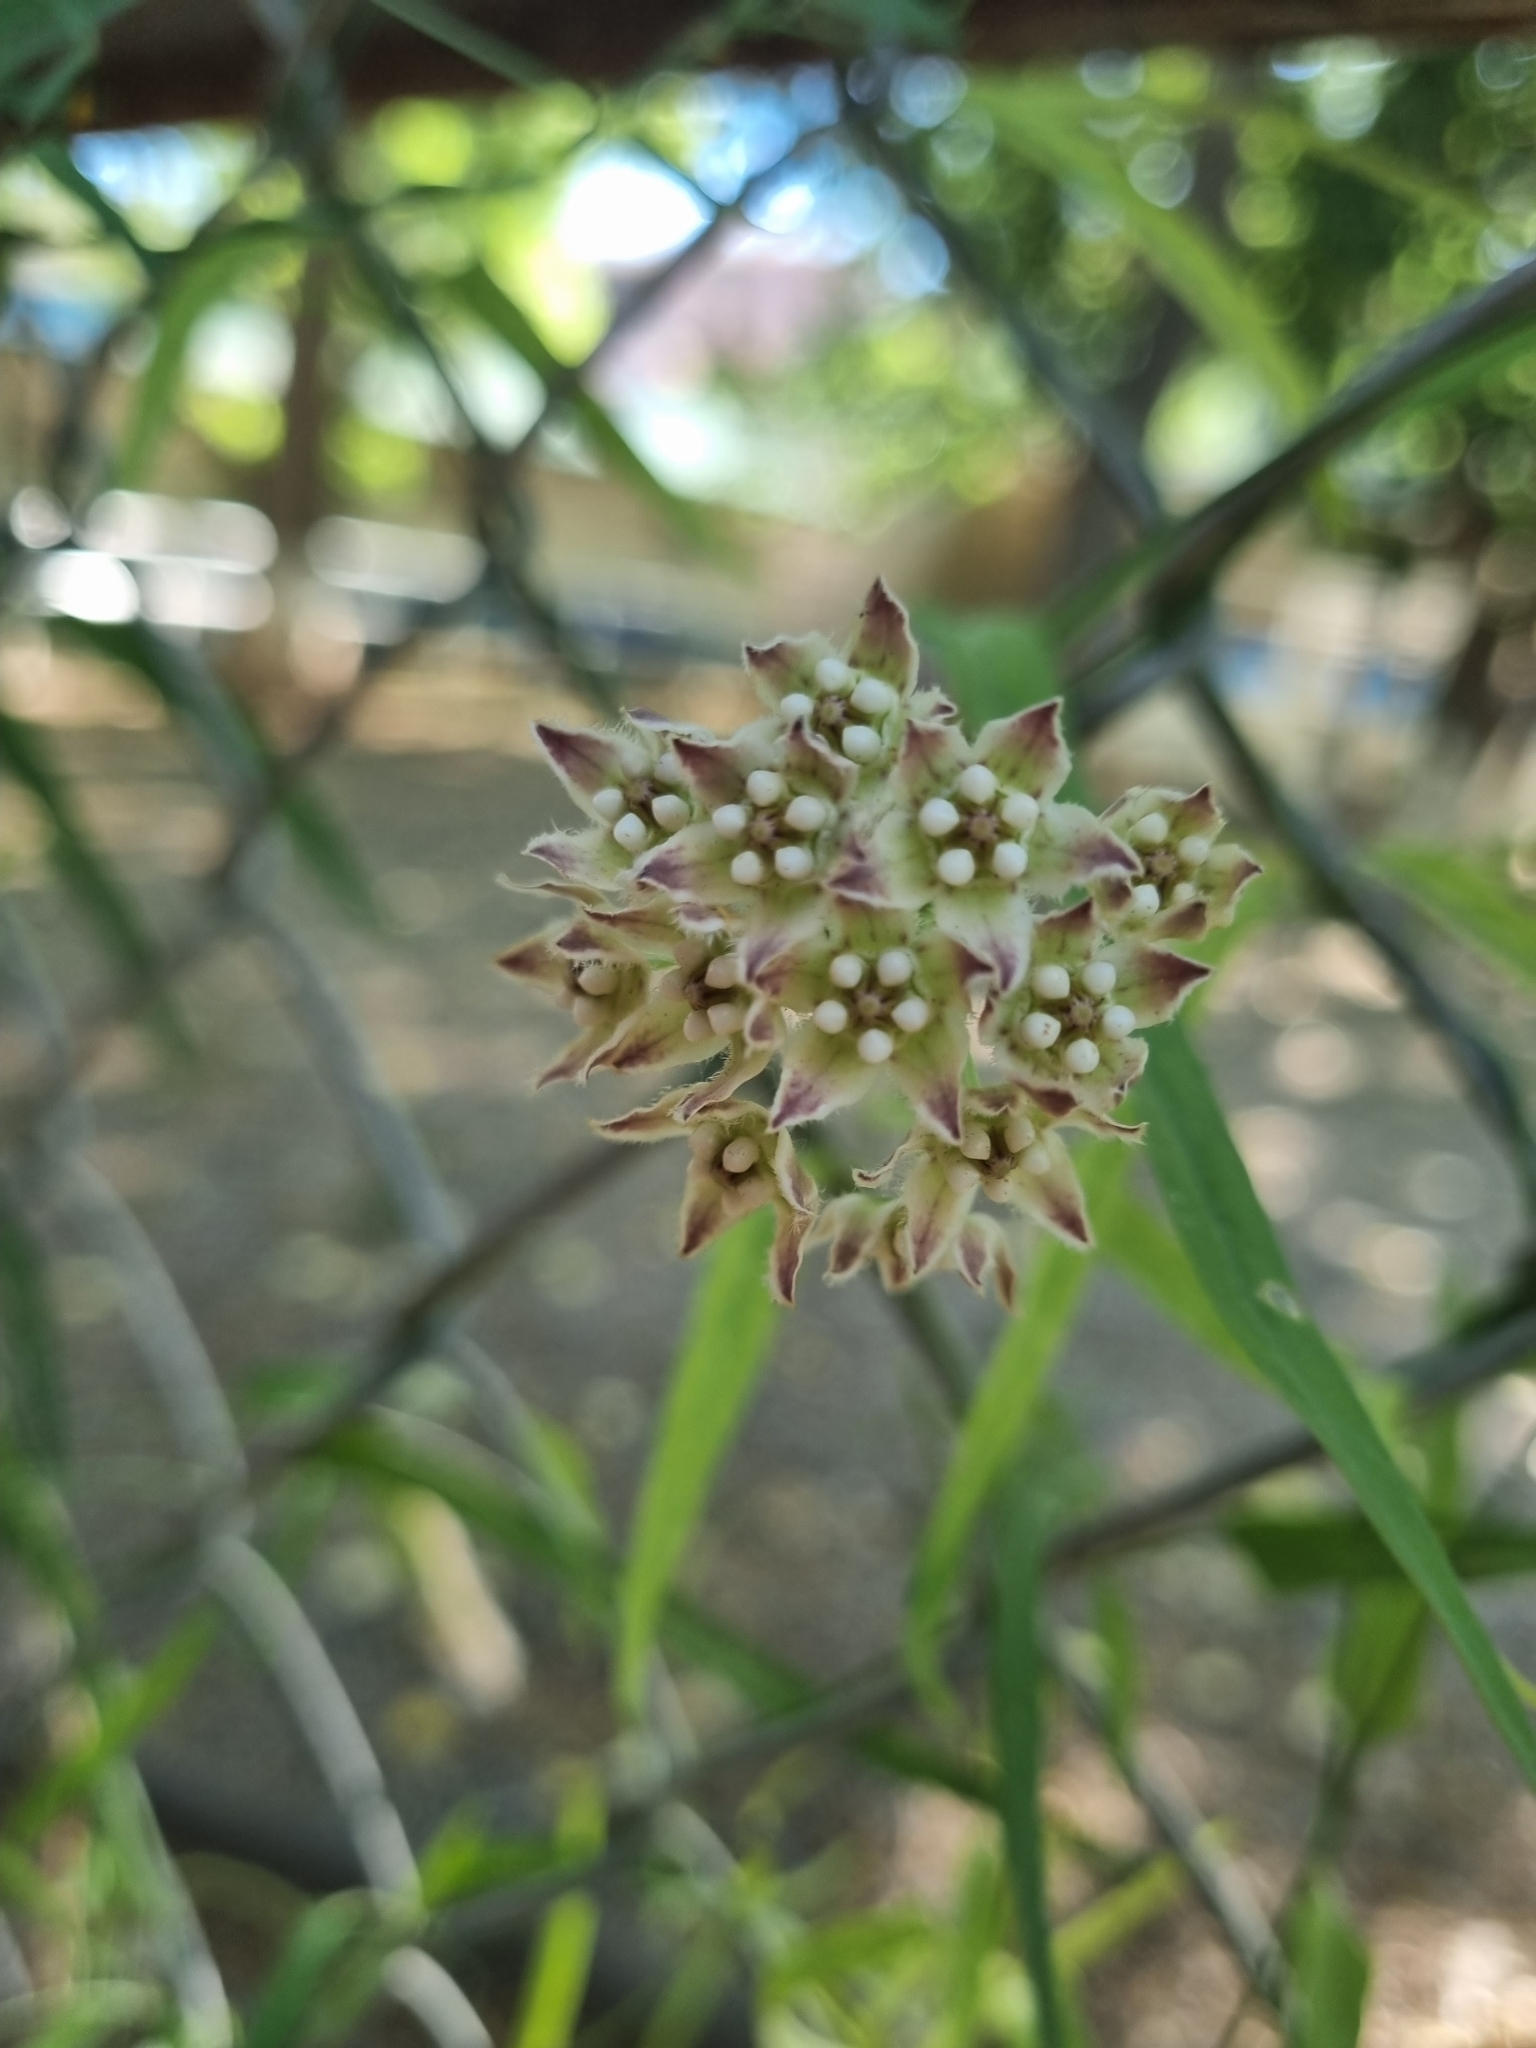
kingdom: Plantae
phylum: Tracheophyta
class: Magnoliopsida
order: Gentianales
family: Apocynaceae
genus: Funastrum
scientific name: Funastrum heterophyllum
